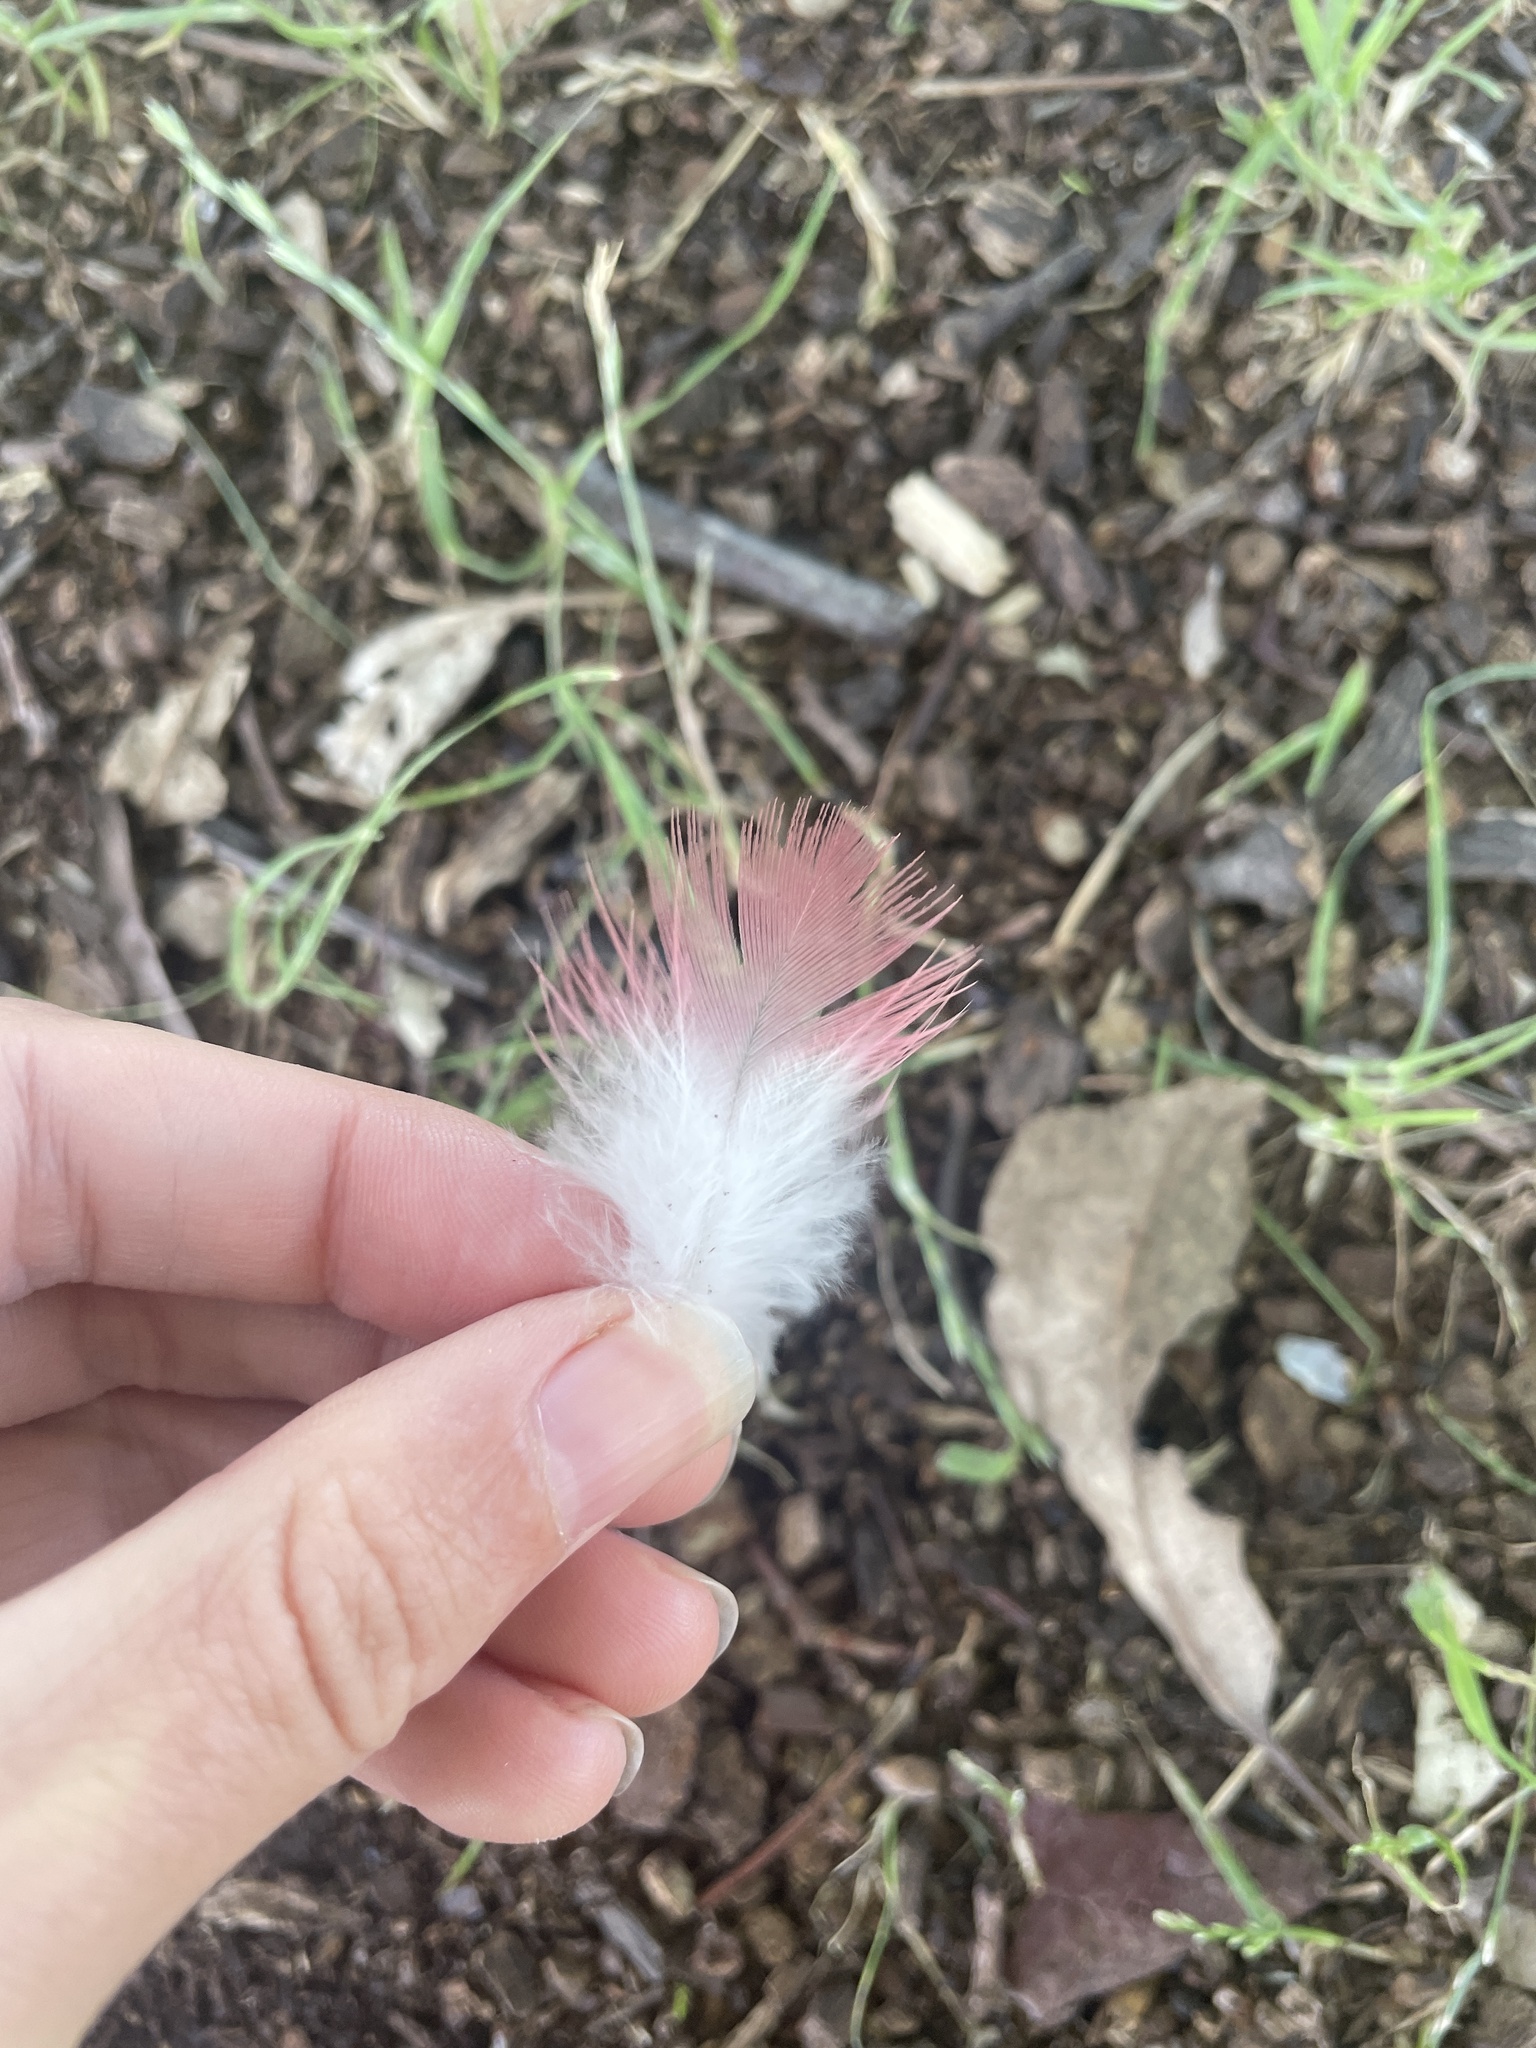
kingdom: Animalia
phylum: Chordata
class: Aves
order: Psittaciformes
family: Psittacidae
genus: Eolophus
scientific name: Eolophus roseicapilla
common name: Galah
